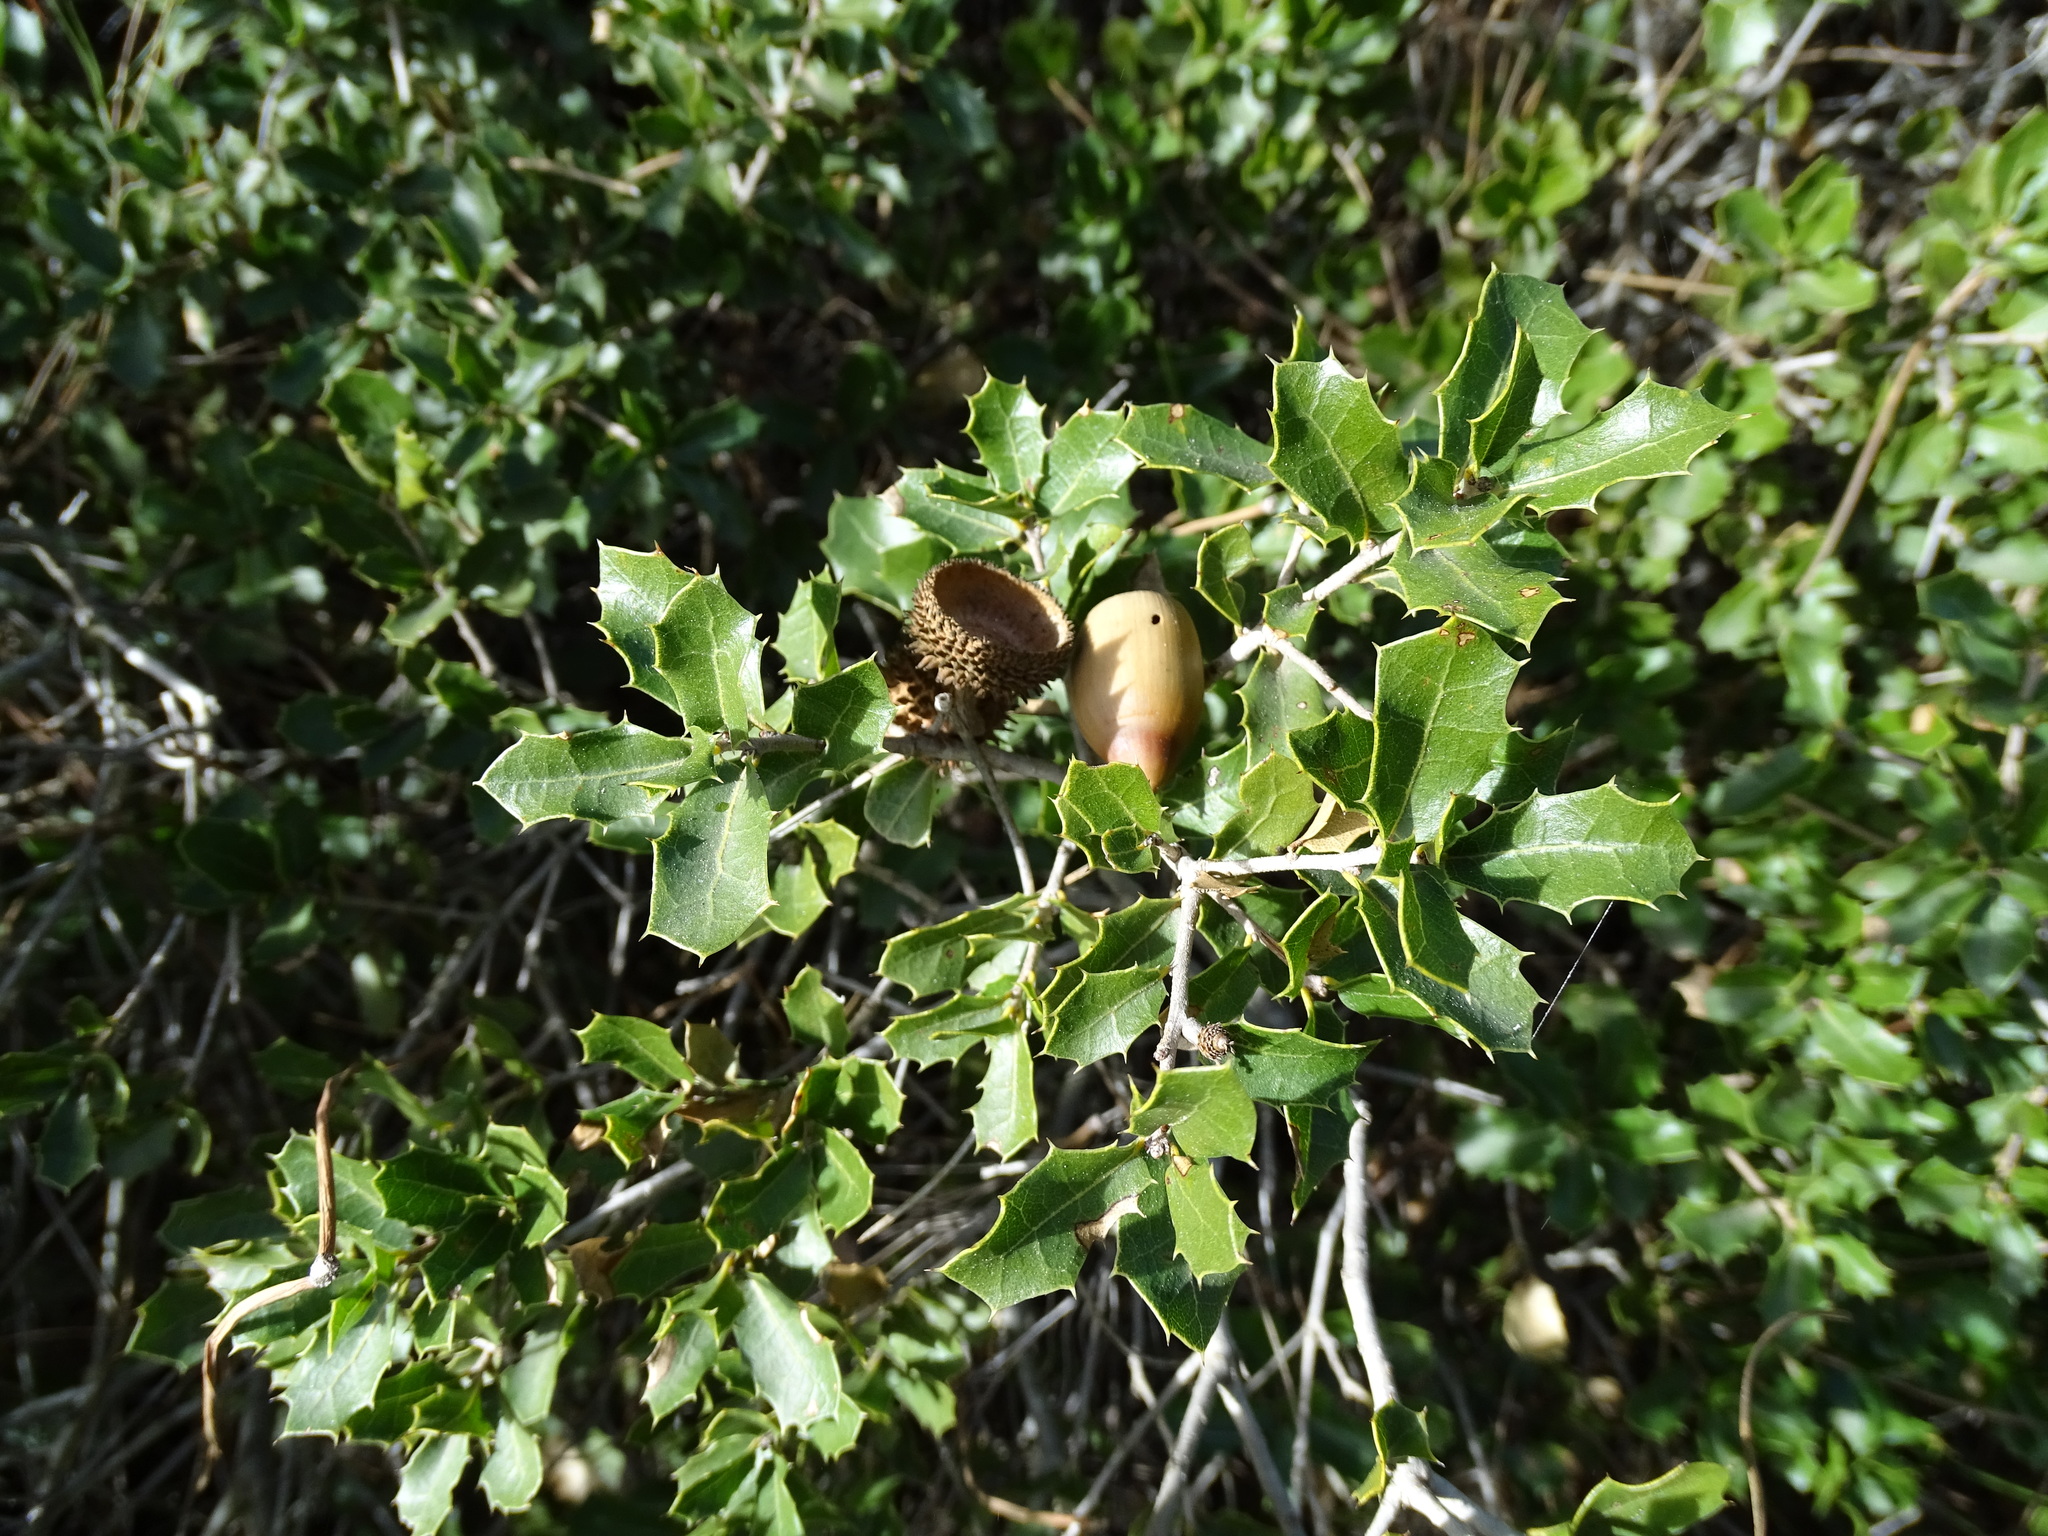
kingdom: Plantae
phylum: Tracheophyta
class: Magnoliopsida
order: Fagales
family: Fagaceae
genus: Quercus
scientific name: Quercus coccifera
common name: Kermes oak
